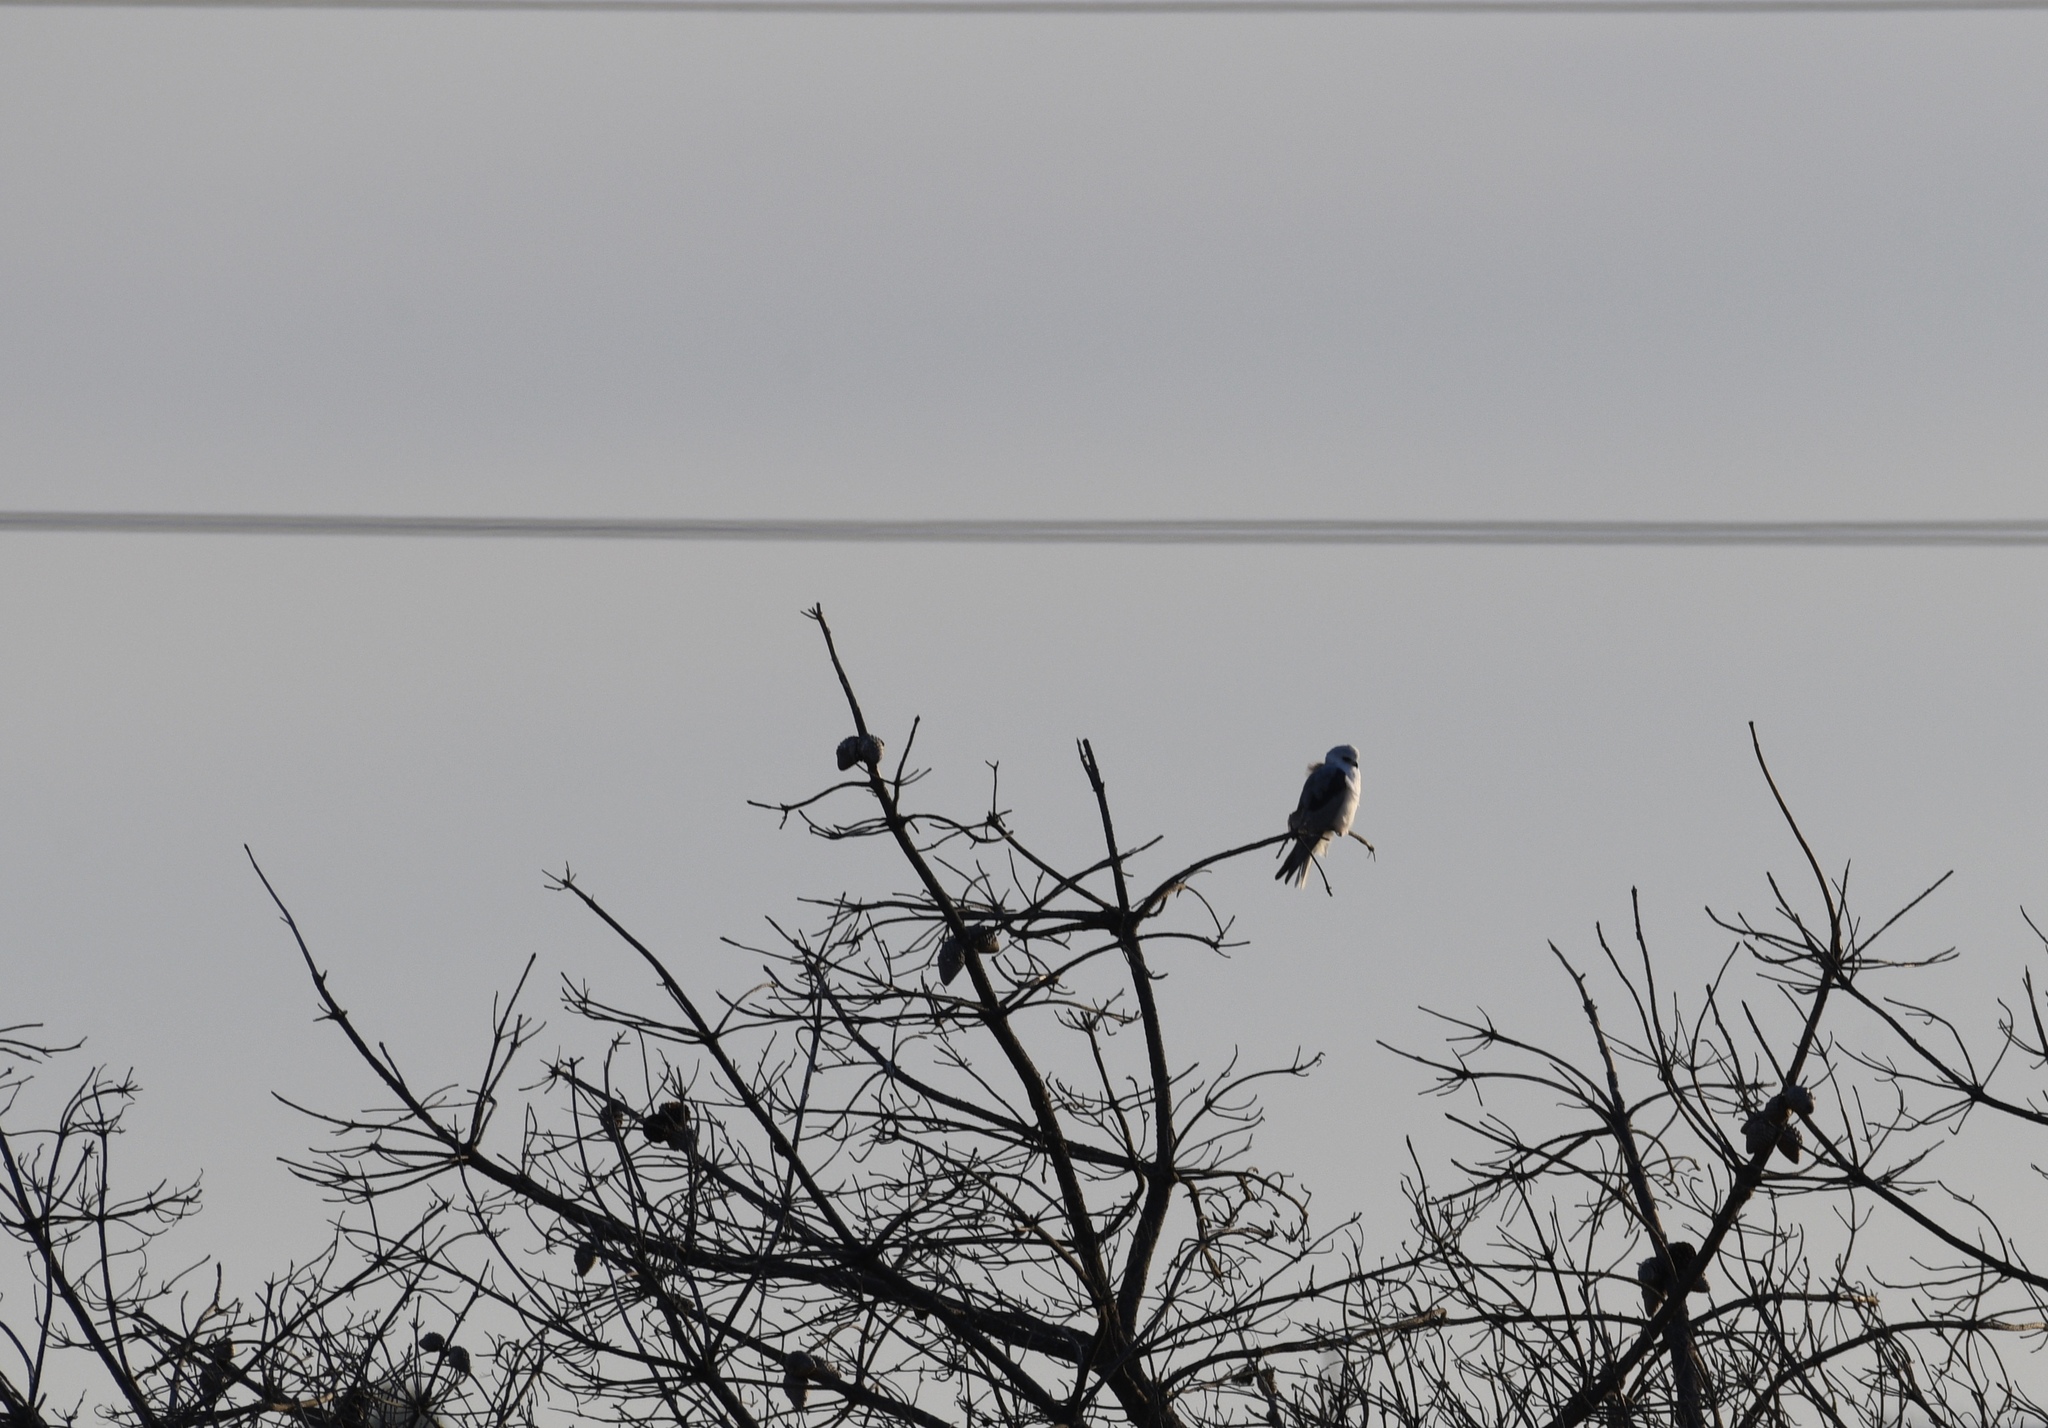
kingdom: Animalia
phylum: Chordata
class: Aves
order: Accipitriformes
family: Accipitridae
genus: Elanus
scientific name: Elanus leucurus
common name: White-tailed kite
